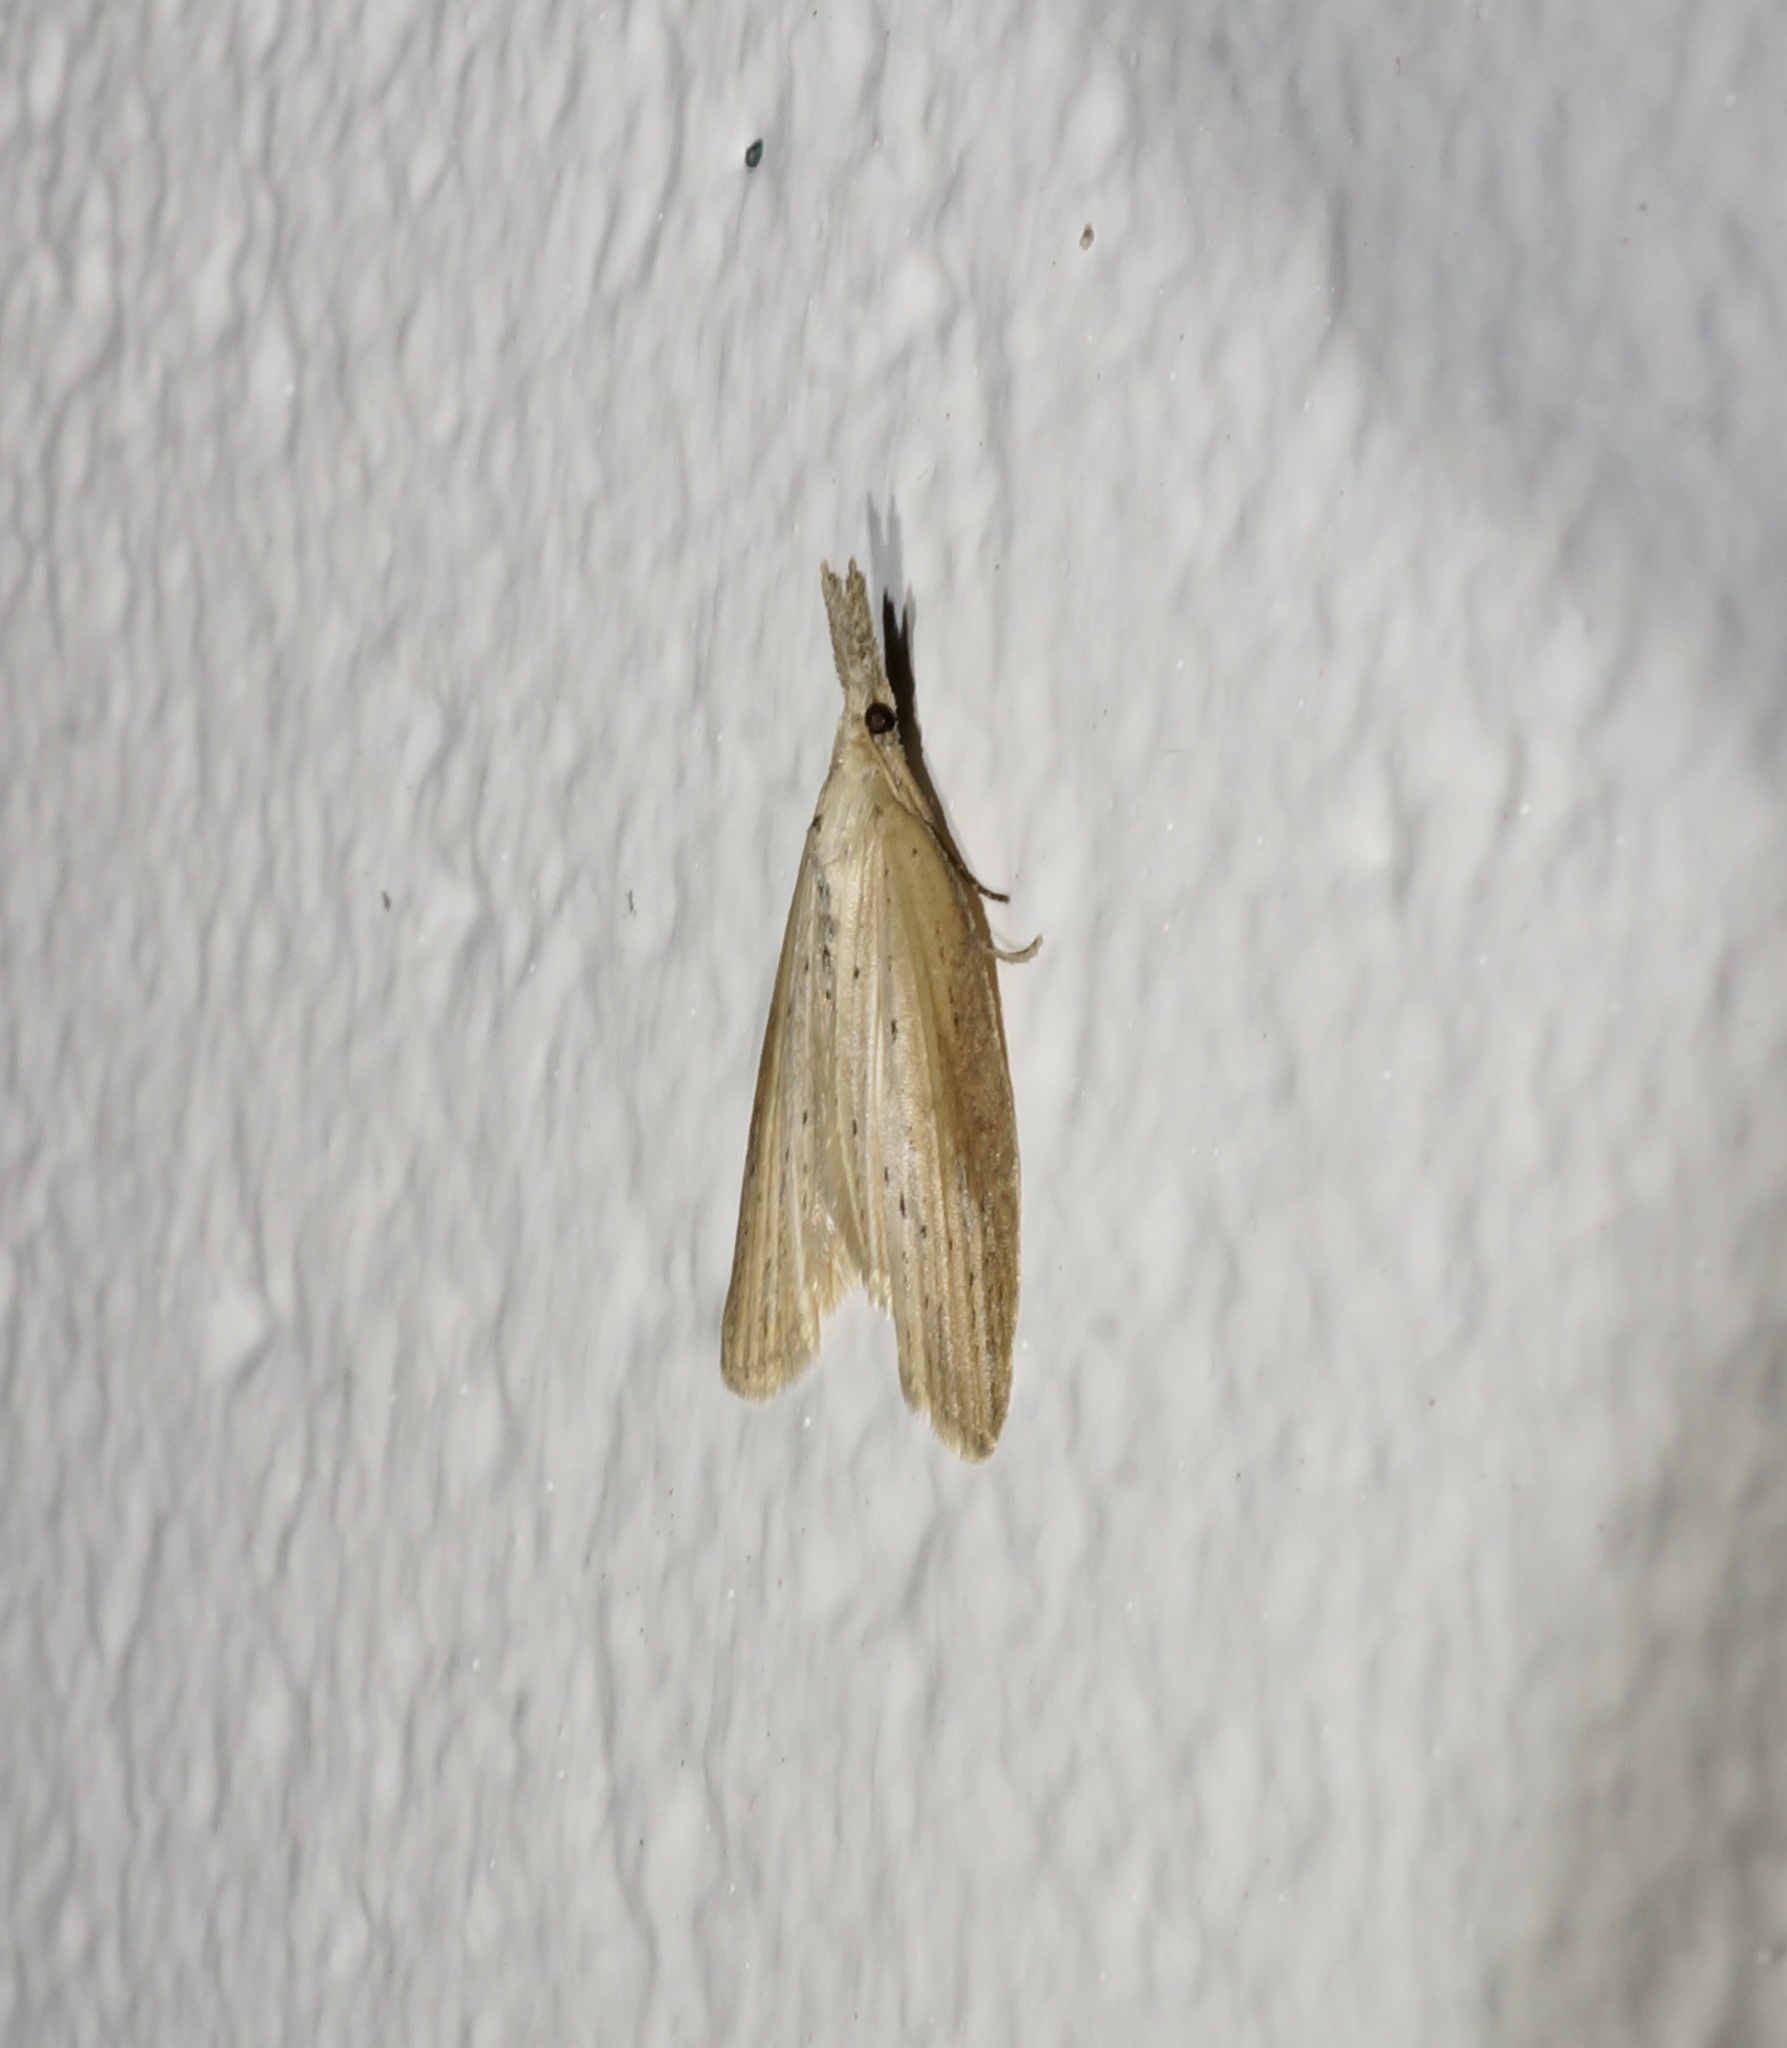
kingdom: Animalia
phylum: Arthropoda
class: Insecta
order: Lepidoptera
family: Geometridae
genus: Microdes
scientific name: Microdes epicryptis
